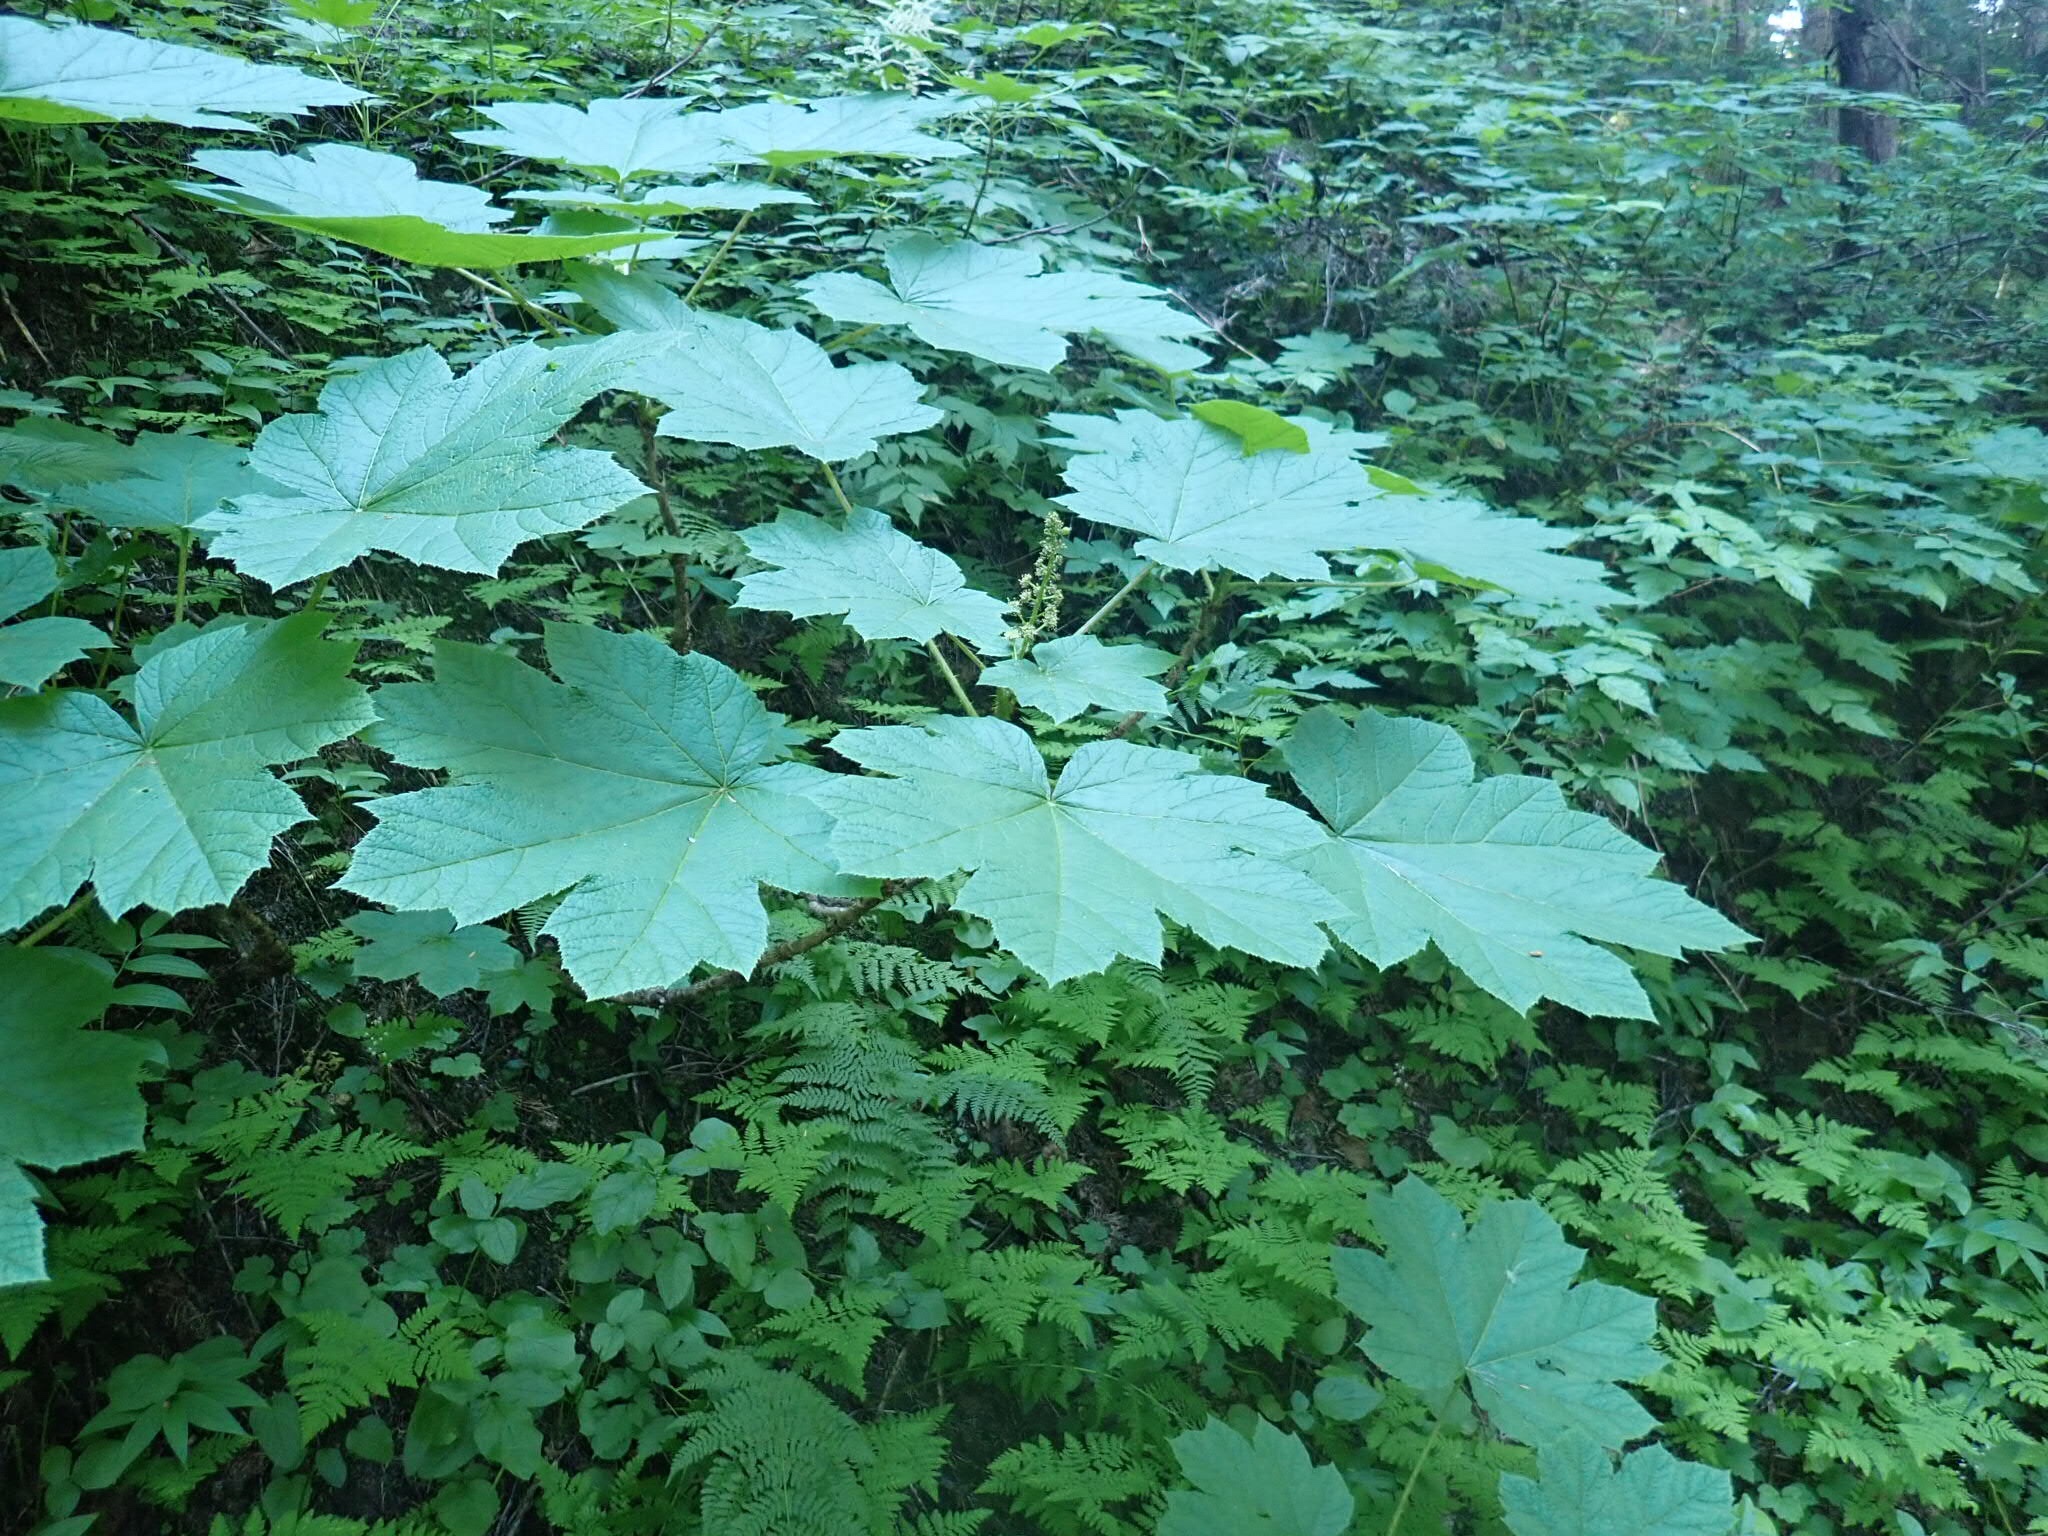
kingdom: Plantae
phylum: Tracheophyta
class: Magnoliopsida
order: Apiales
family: Araliaceae
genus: Oplopanax
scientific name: Oplopanax horridus
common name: Devil's walking-stick
